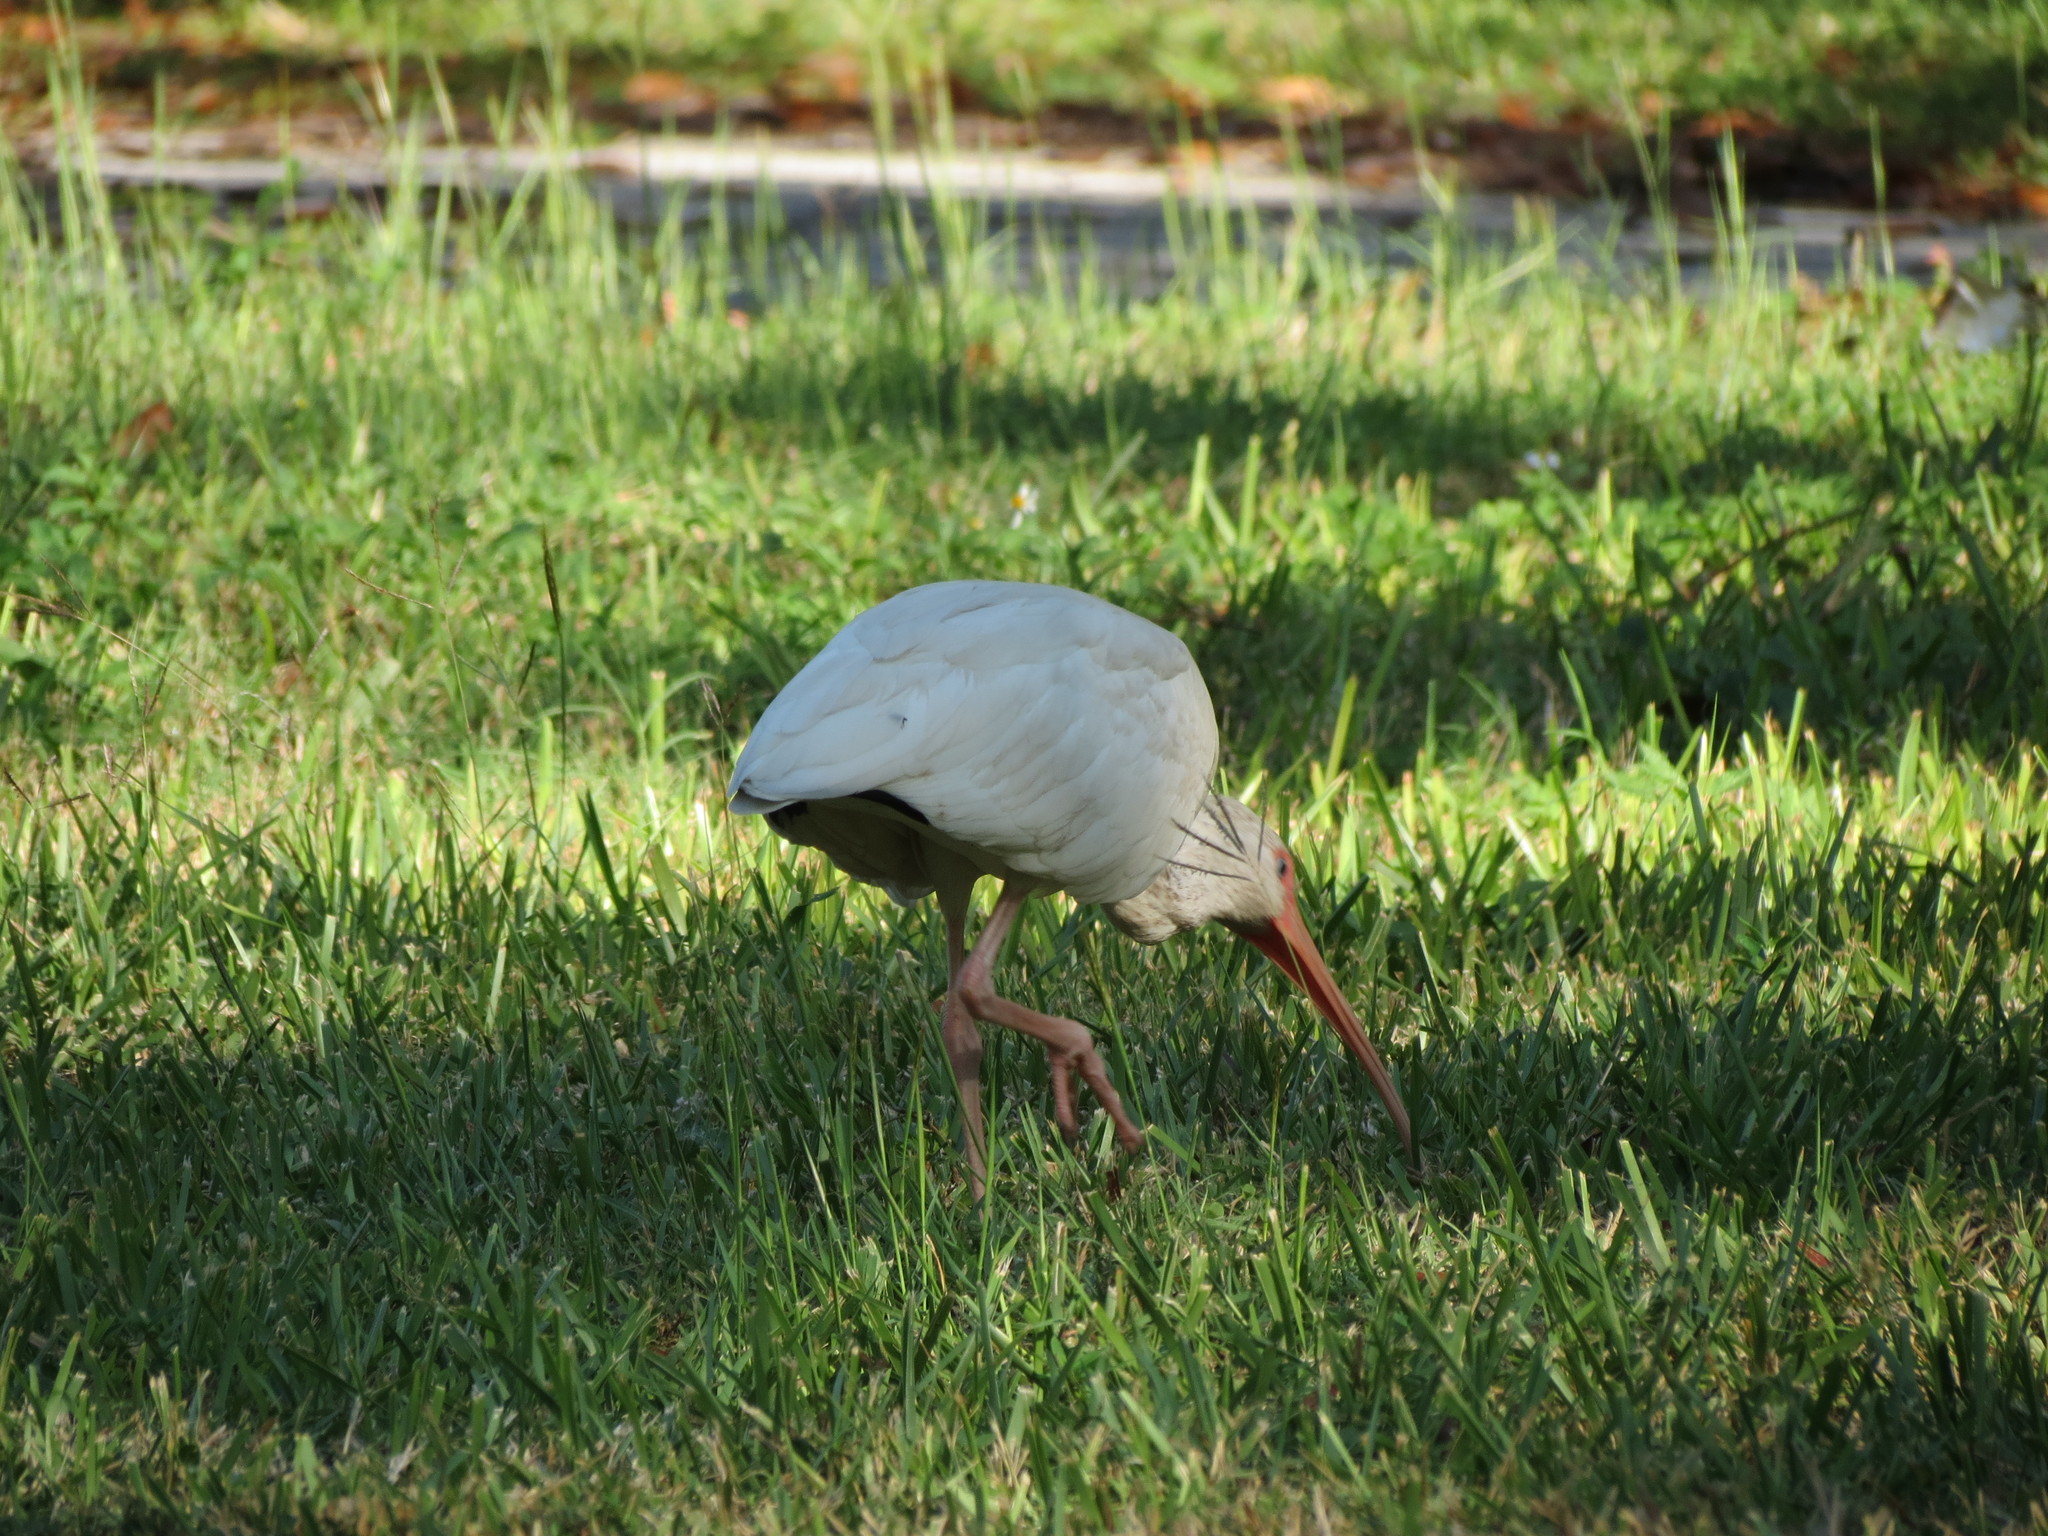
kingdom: Animalia
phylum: Chordata
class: Aves
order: Pelecaniformes
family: Threskiornithidae
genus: Eudocimus
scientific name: Eudocimus albus
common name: White ibis
